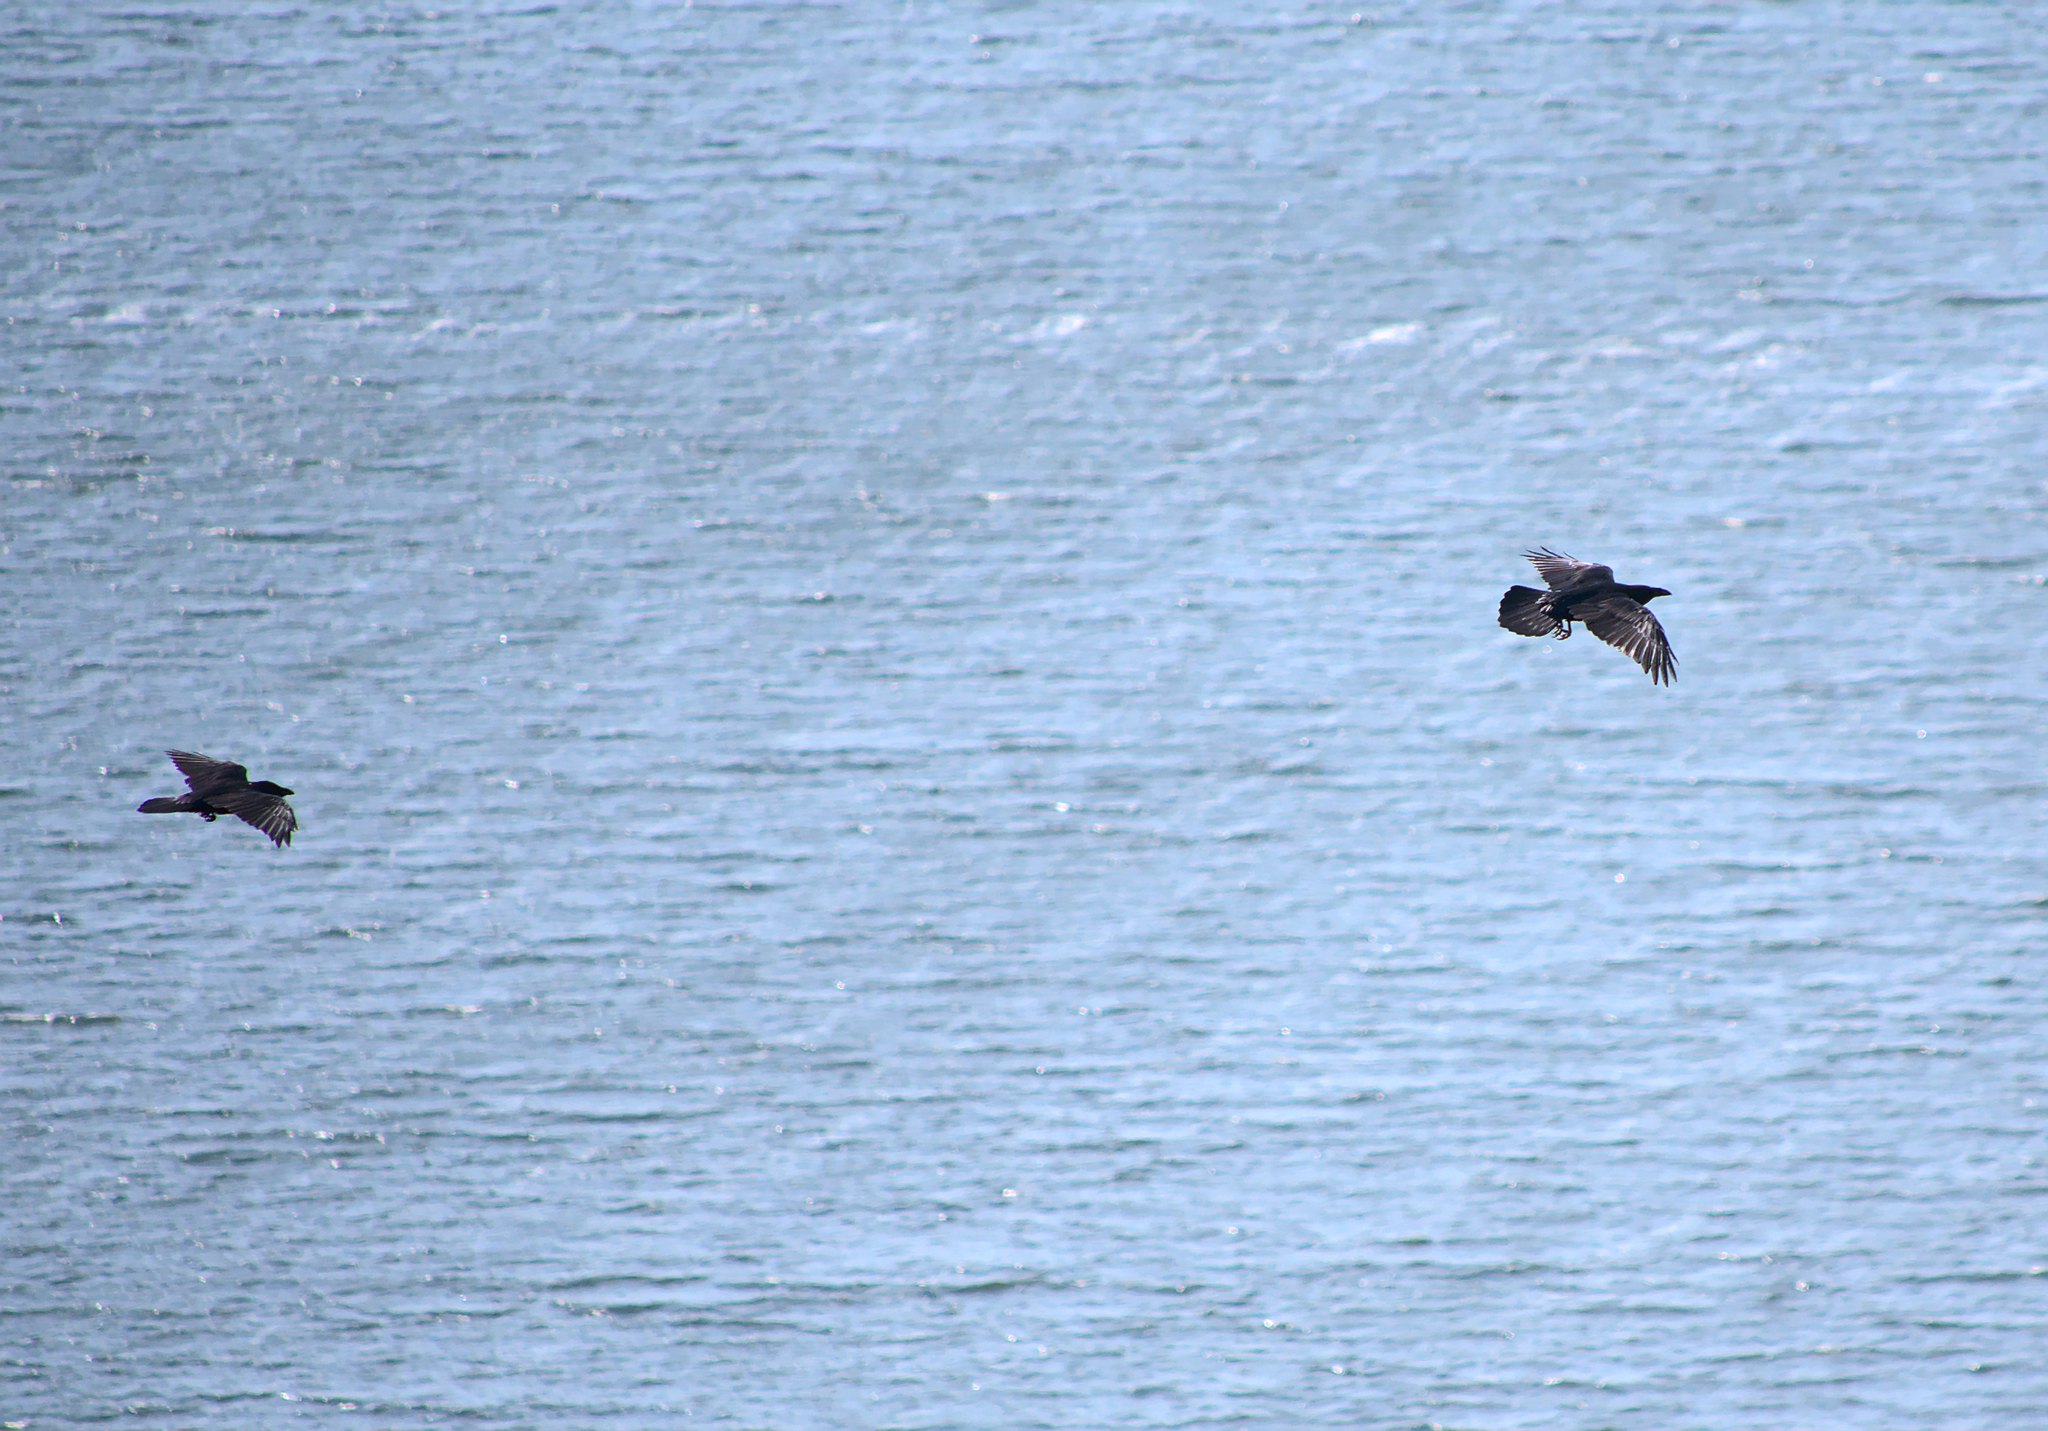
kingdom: Animalia
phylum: Chordata
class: Aves
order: Passeriformes
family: Corvidae
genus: Corvus
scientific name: Corvus corax
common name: Common raven
